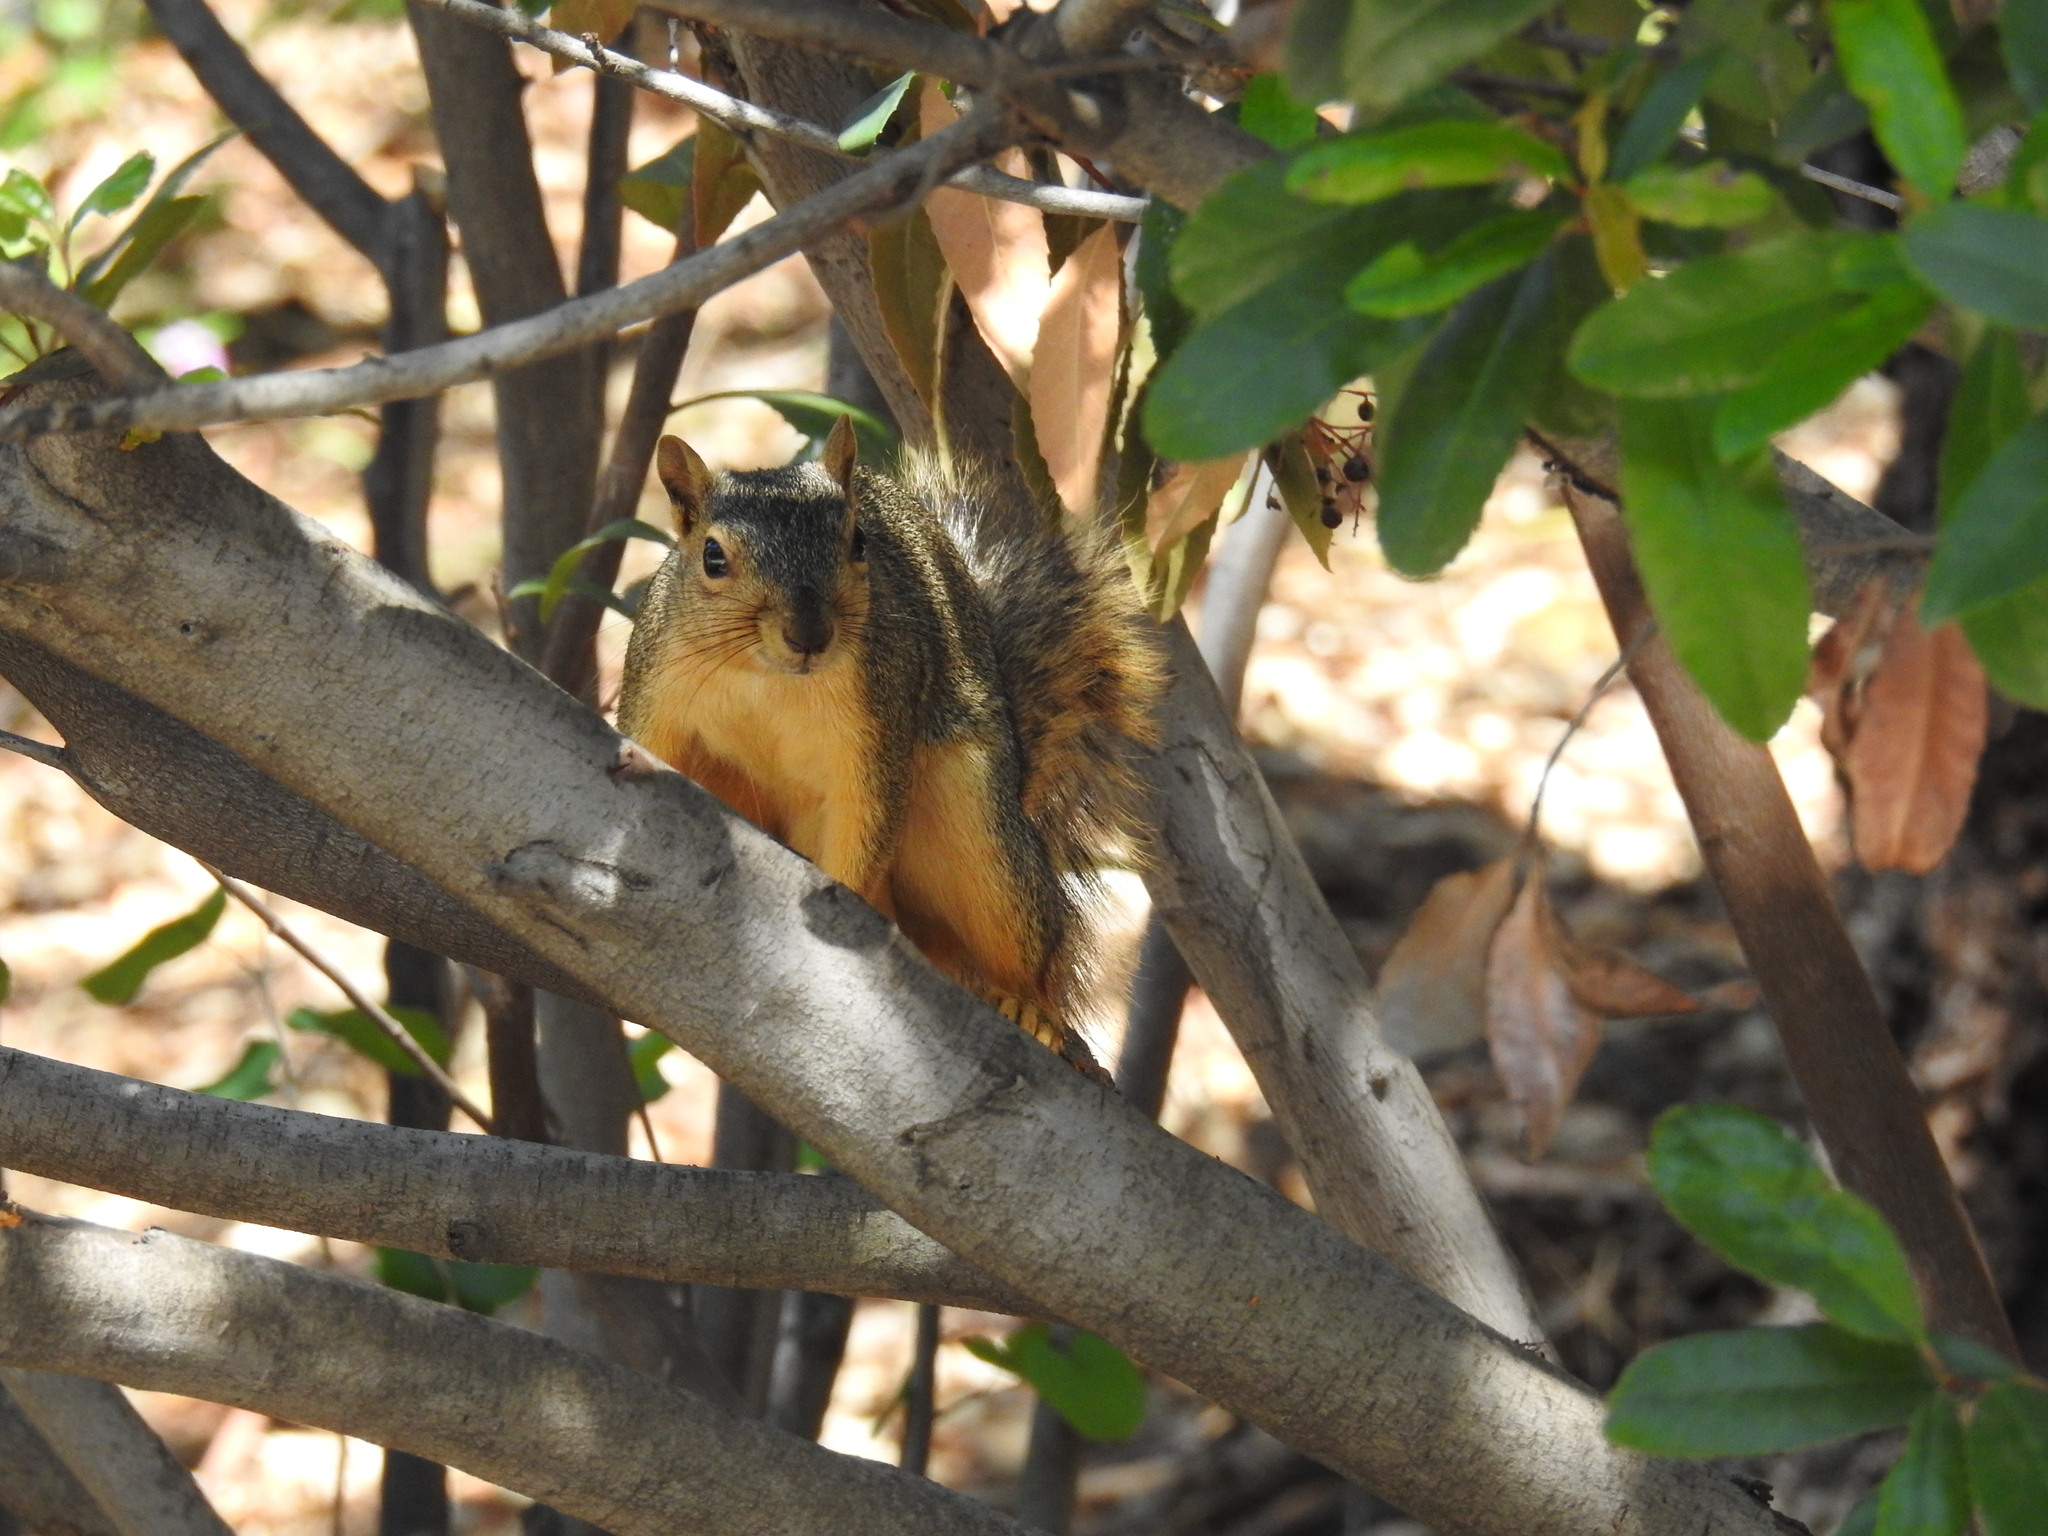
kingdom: Animalia
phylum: Chordata
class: Mammalia
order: Rodentia
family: Sciuridae
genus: Sciurus
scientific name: Sciurus niger
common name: Fox squirrel
